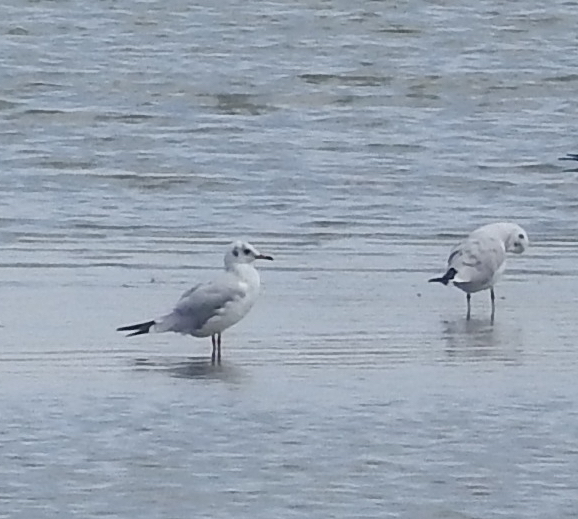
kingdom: Animalia
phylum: Chordata
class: Aves
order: Charadriiformes
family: Laridae
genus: Chroicocephalus
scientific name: Chroicocephalus ridibundus
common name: Black-headed gull
